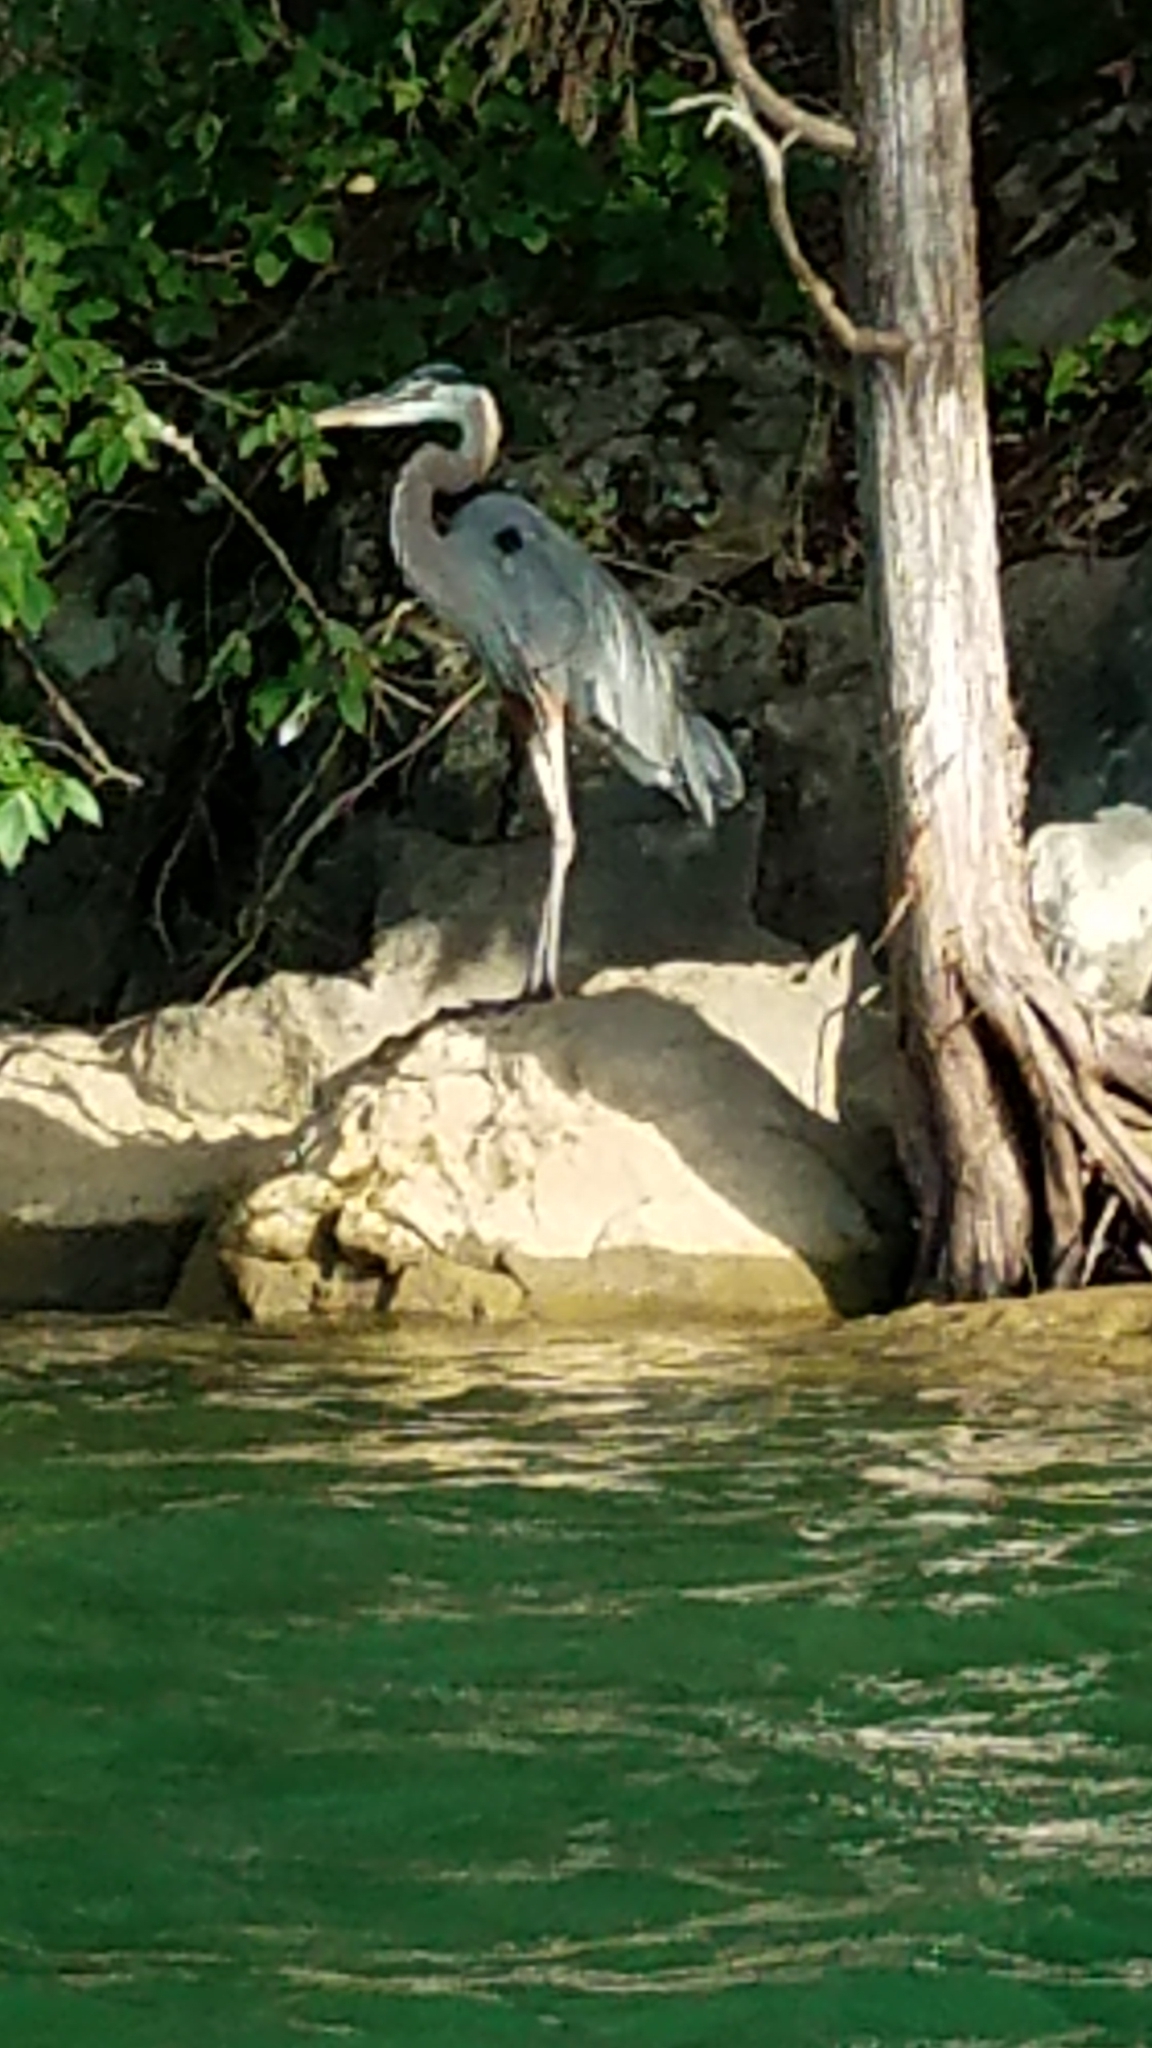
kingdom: Animalia
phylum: Chordata
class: Aves
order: Pelecaniformes
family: Ardeidae
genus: Ardea
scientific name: Ardea herodias
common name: Great blue heron
